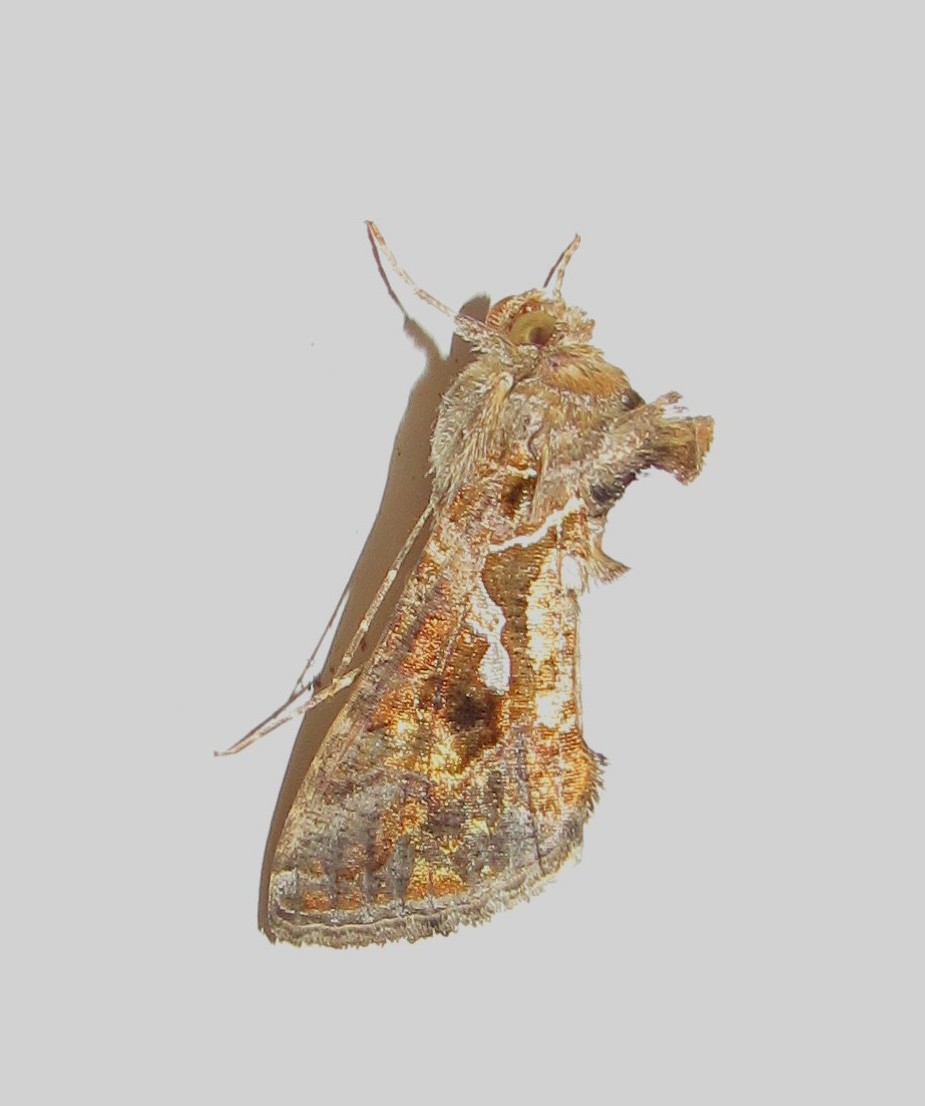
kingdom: Animalia
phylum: Arthropoda
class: Insecta
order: Lepidoptera
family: Noctuidae
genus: Chrysodeixis
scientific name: Chrysodeixis includens
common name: Cutworm moth
